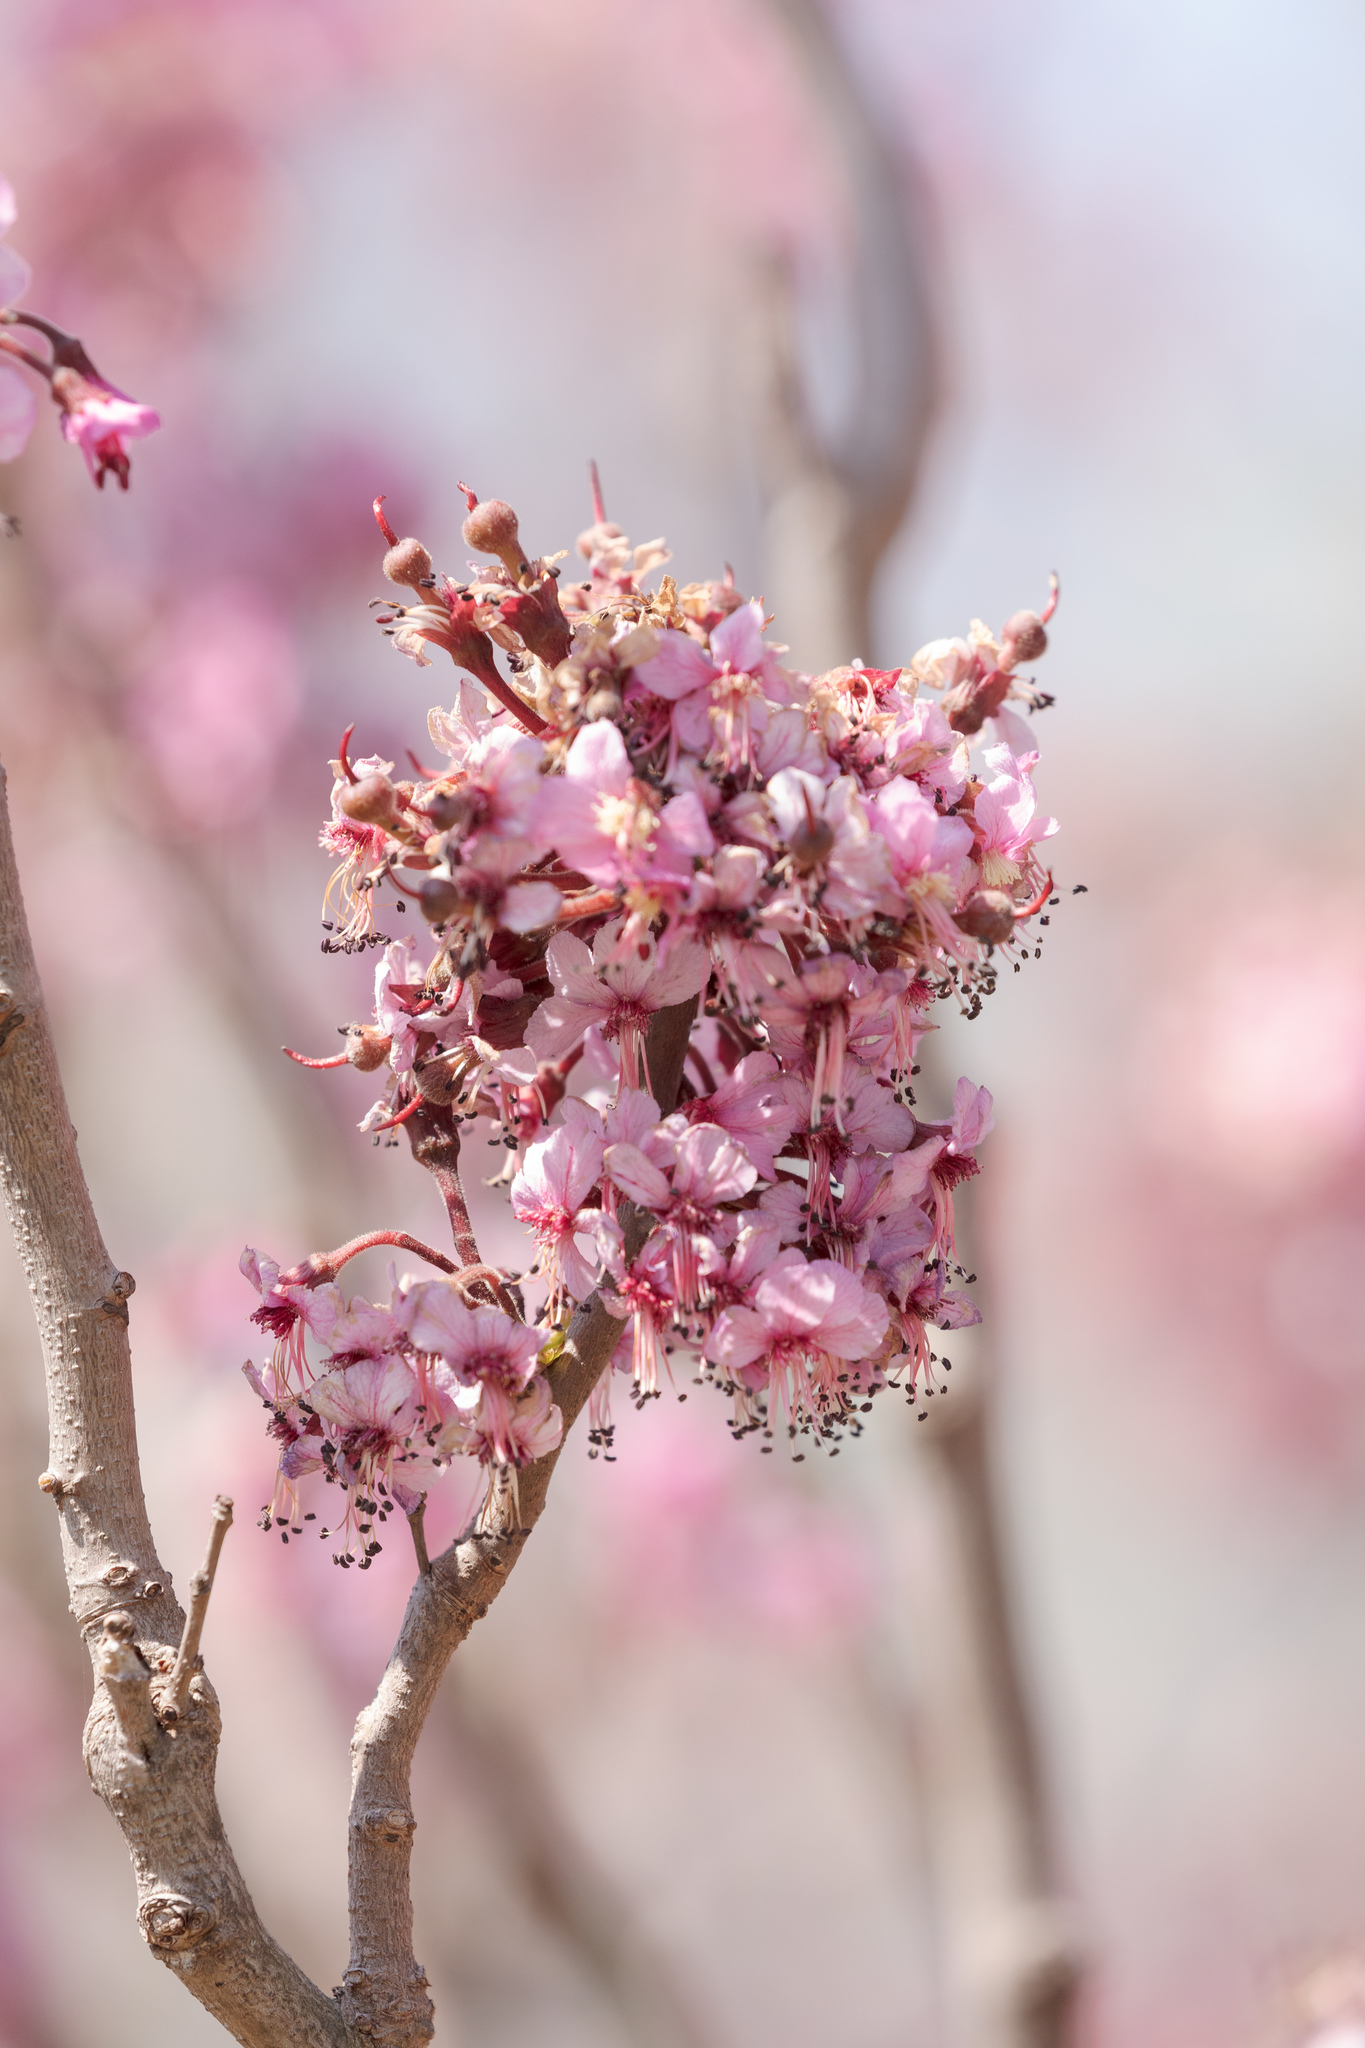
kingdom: Plantae
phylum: Tracheophyta
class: Magnoliopsida
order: Sapindales
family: Sapindaceae
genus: Ungnadia
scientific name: Ungnadia speciosa
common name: Texas-buckeye
